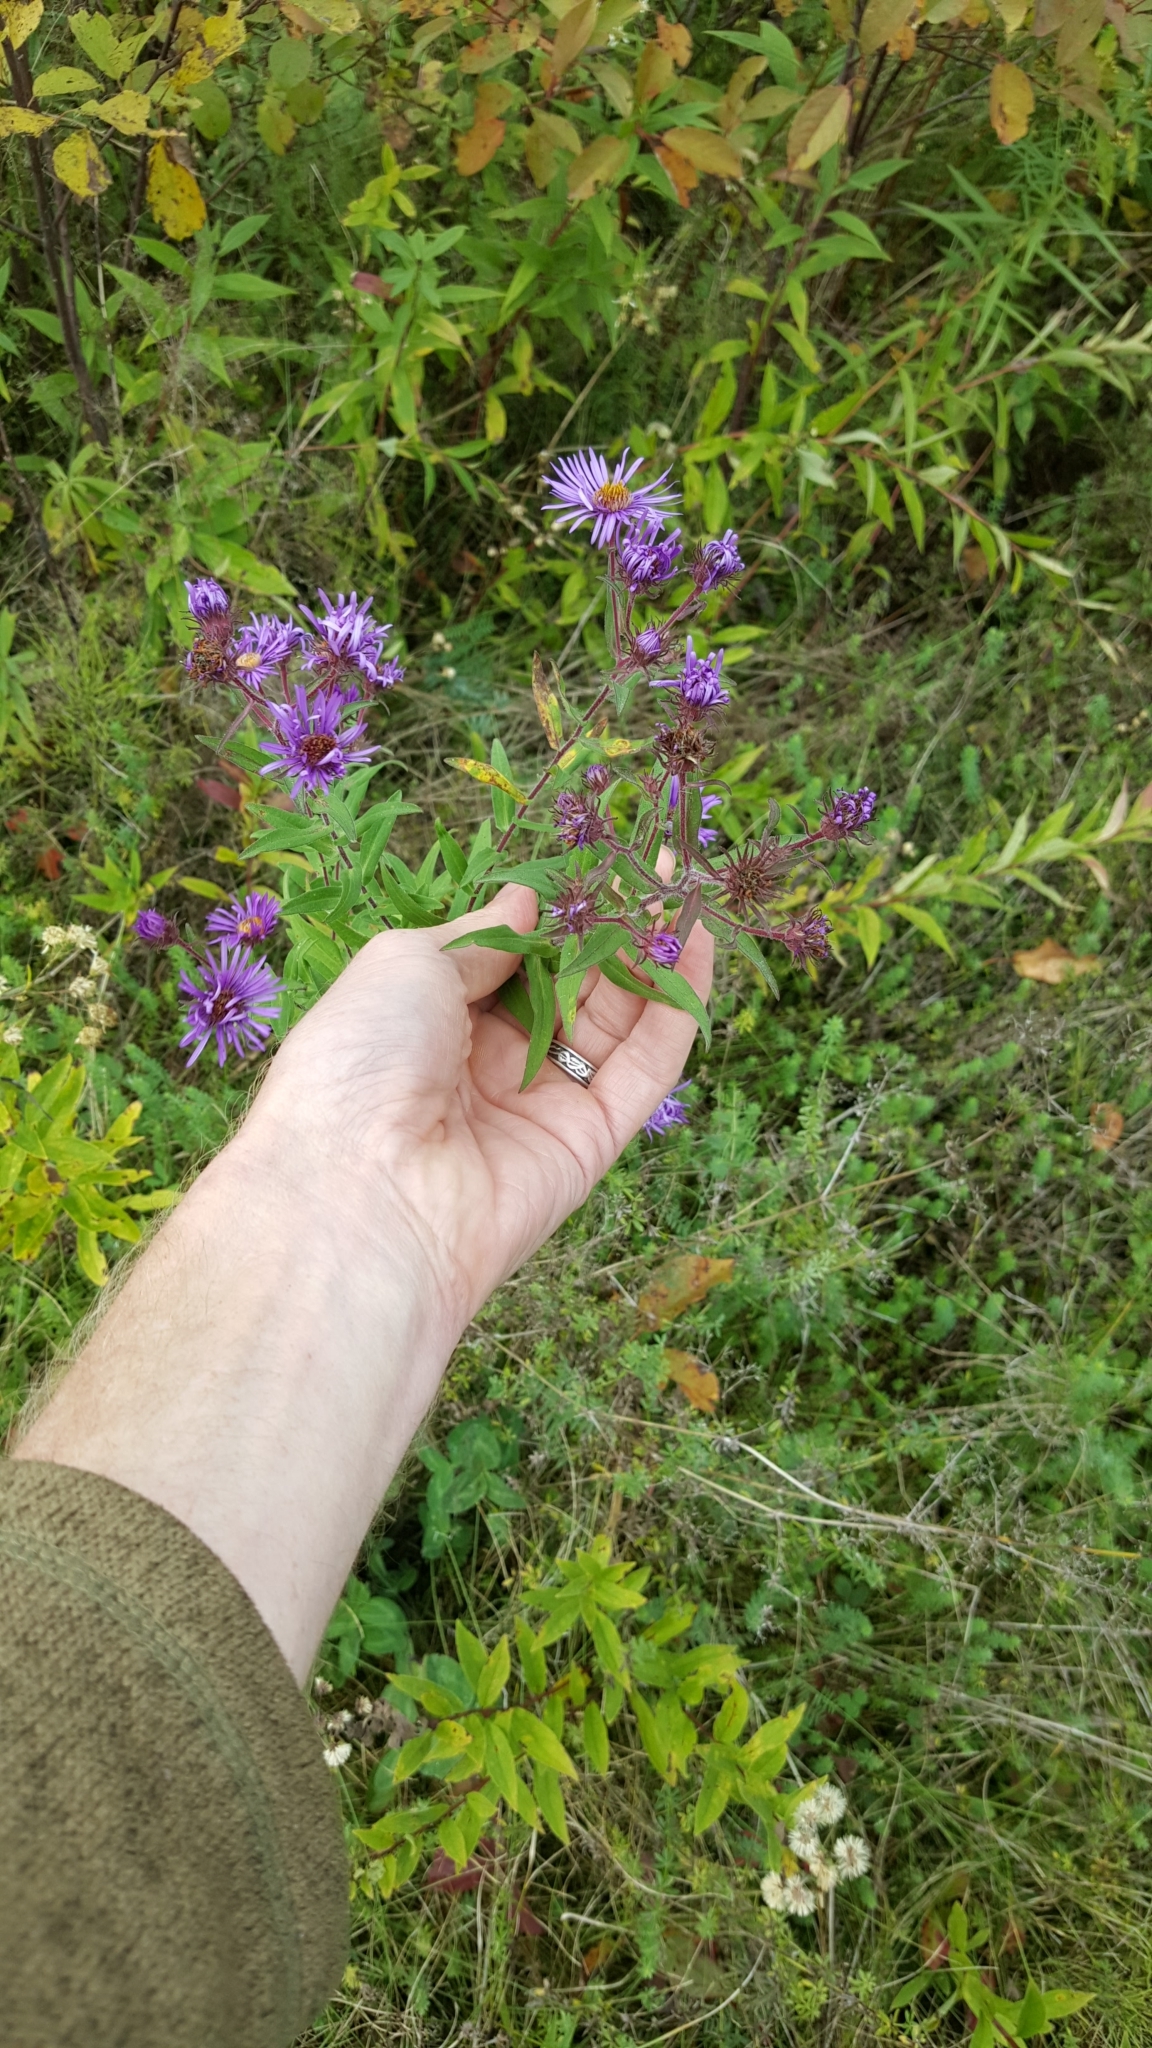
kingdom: Plantae
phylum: Tracheophyta
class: Magnoliopsida
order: Asterales
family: Asteraceae
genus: Symphyotrichum
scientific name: Symphyotrichum novae-angliae
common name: Michaelmas daisy
